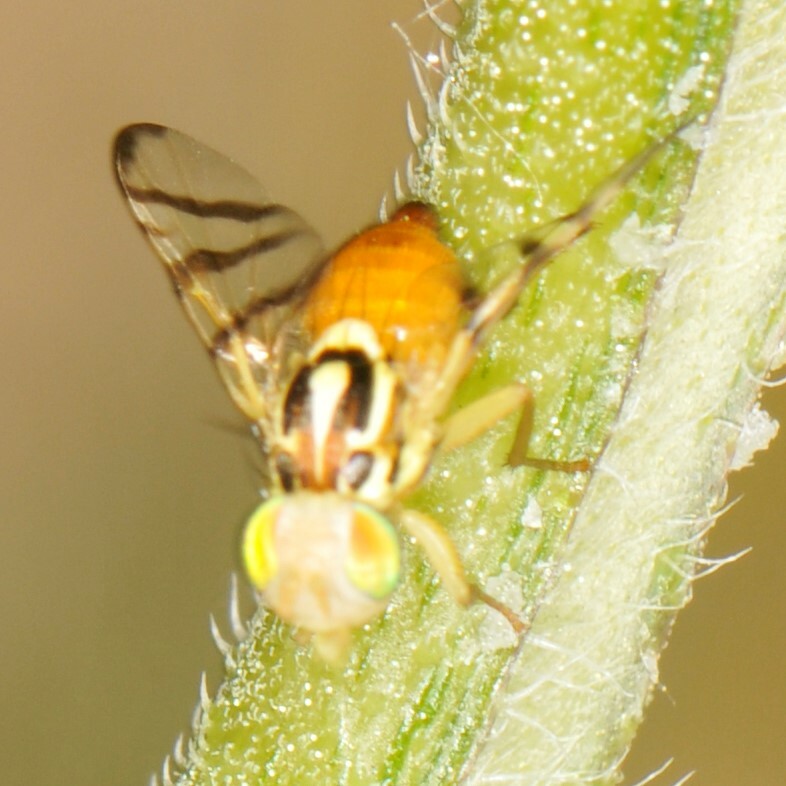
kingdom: Animalia
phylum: Arthropoda
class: Insecta
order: Diptera
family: Tephritidae
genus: Zonosemata
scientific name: Zonosemata vittigera
